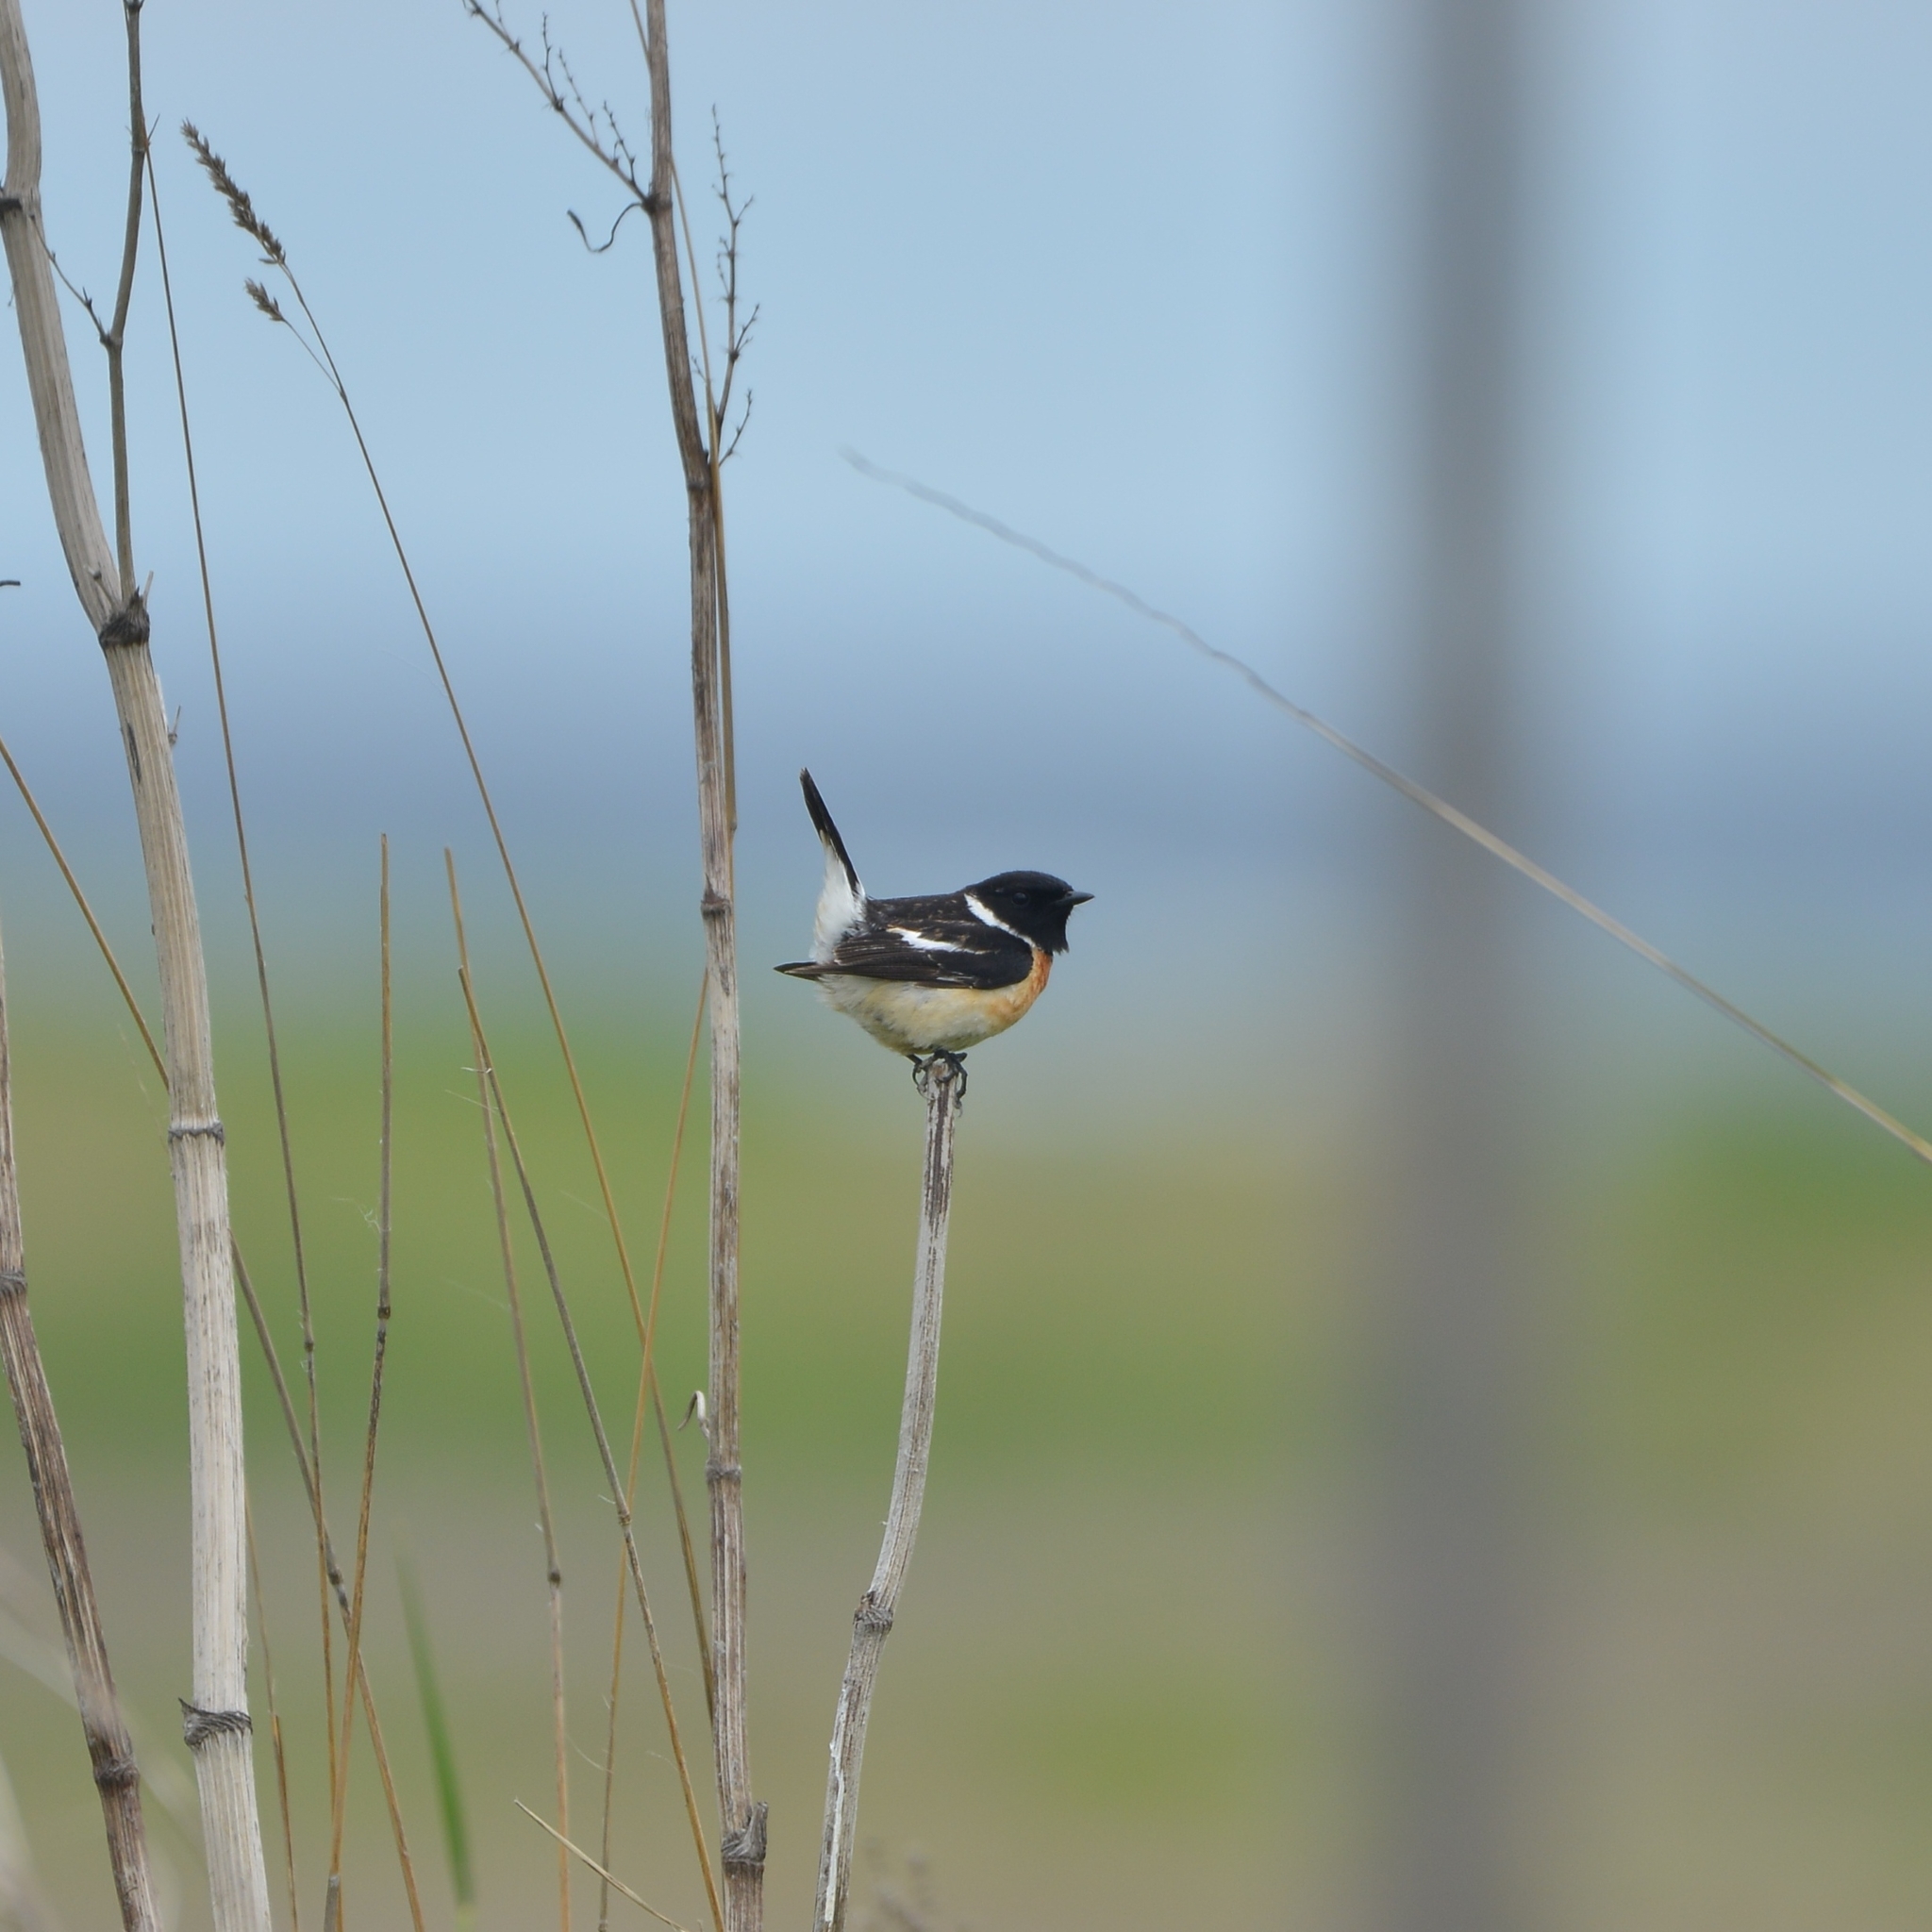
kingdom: Animalia
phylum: Chordata
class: Aves
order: Passeriformes
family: Muscicapidae
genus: Saxicola
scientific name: Saxicola stejnegeri
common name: Stejneger's stonechat
